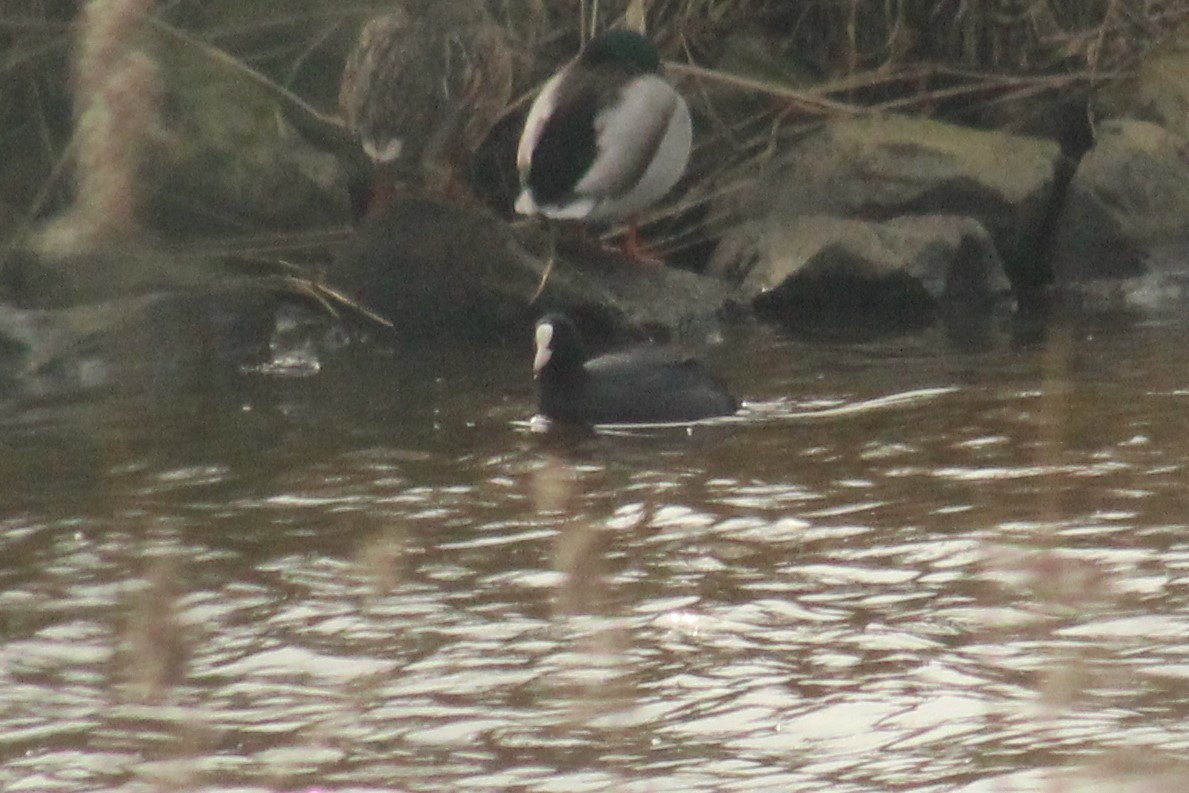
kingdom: Animalia
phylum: Chordata
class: Aves
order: Gruiformes
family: Rallidae
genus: Fulica
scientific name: Fulica atra
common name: Eurasian coot
